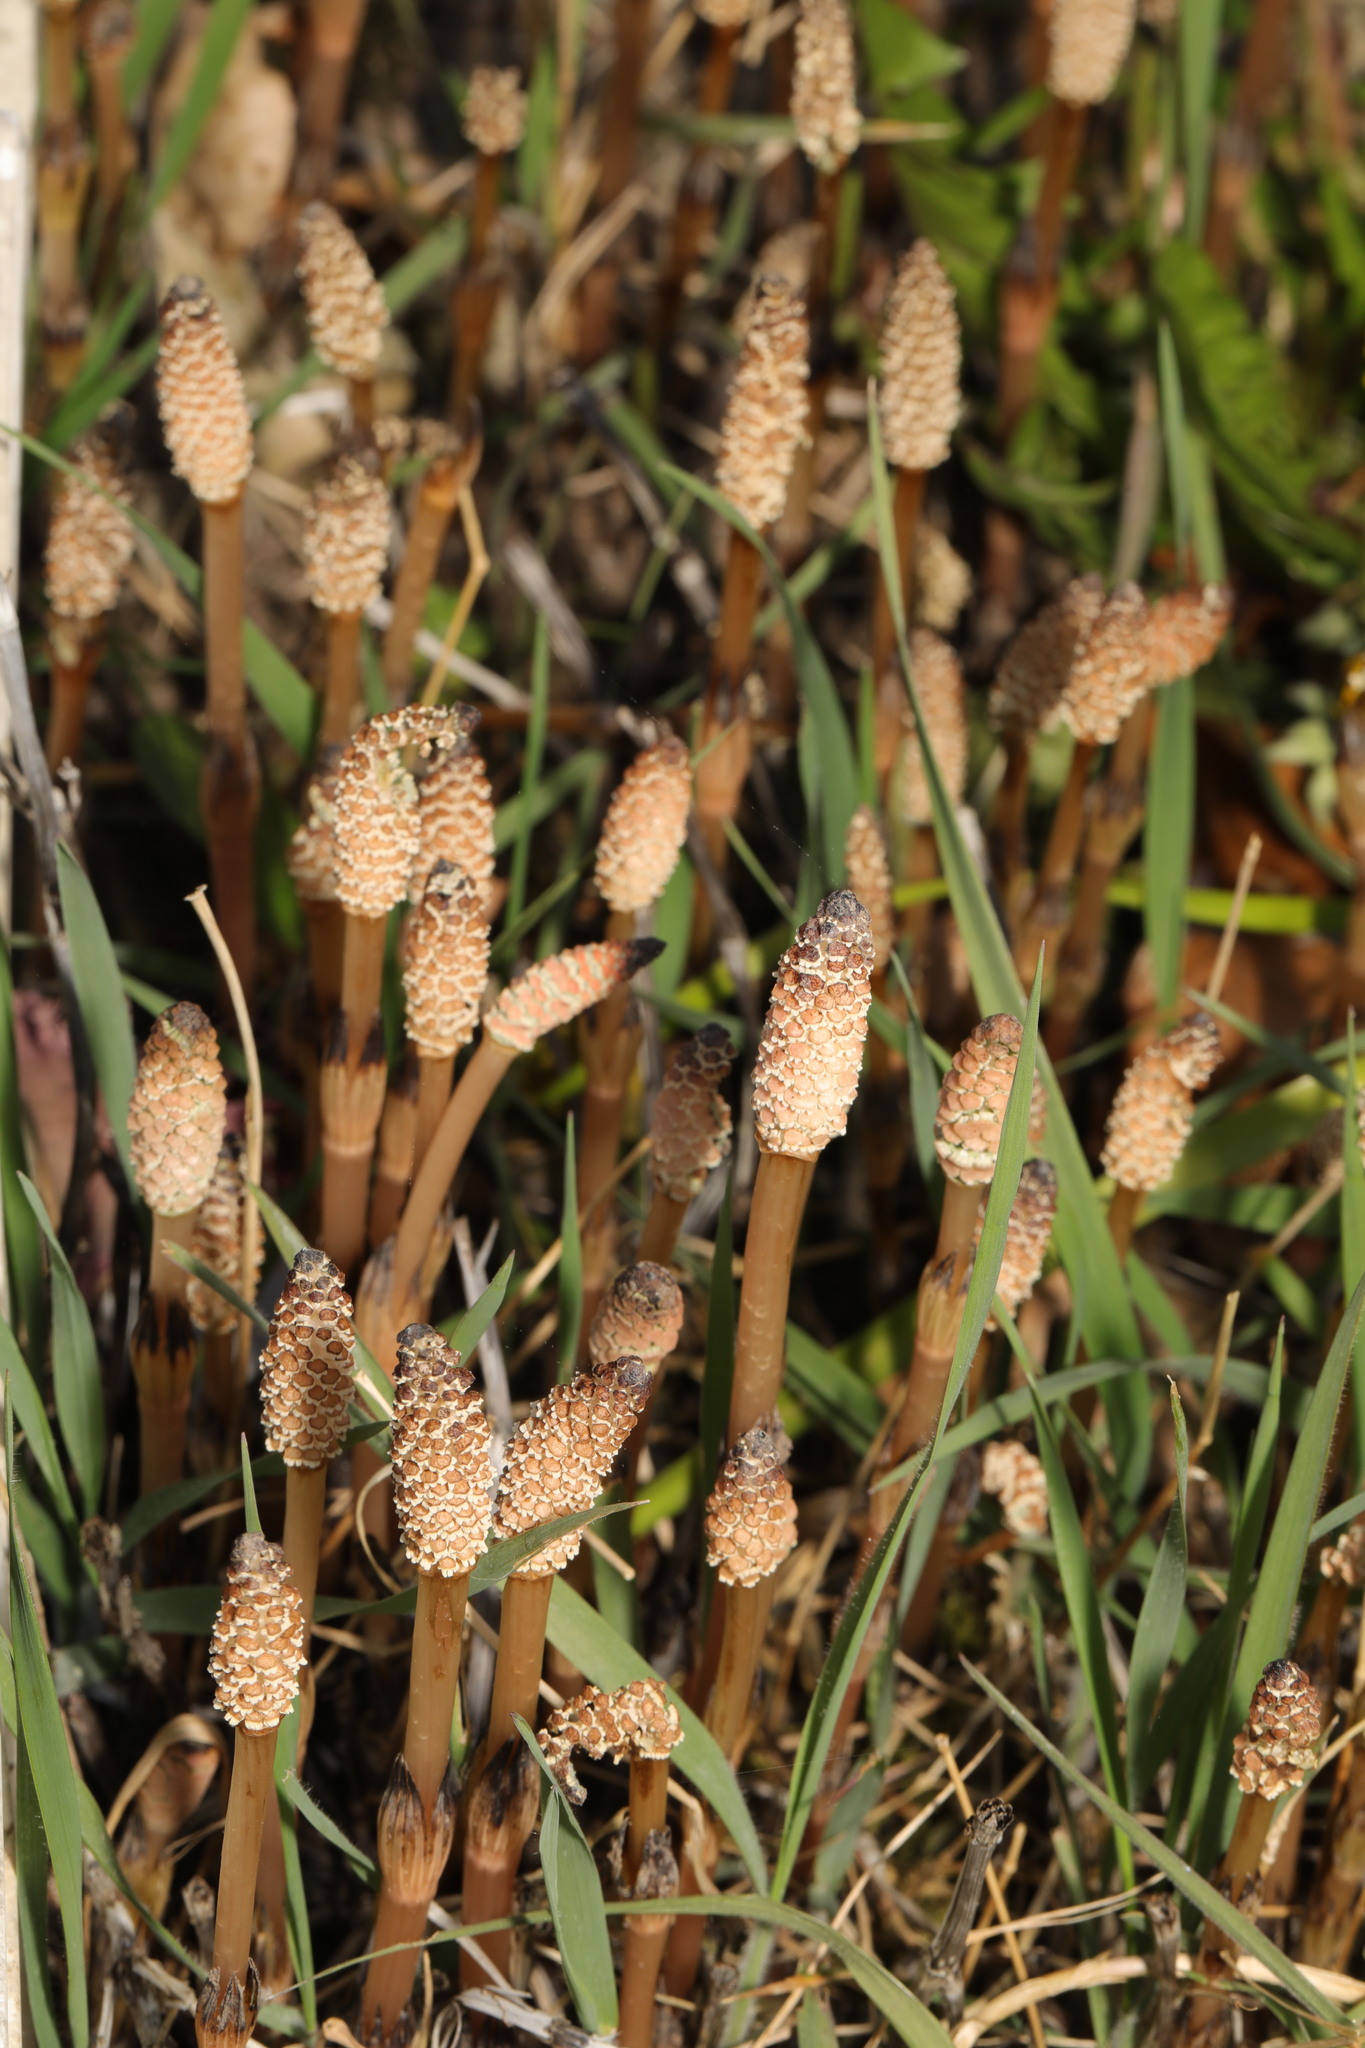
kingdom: Plantae
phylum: Tracheophyta
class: Polypodiopsida
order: Equisetales
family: Equisetaceae
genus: Equisetum
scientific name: Equisetum arvense
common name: Field horsetail
